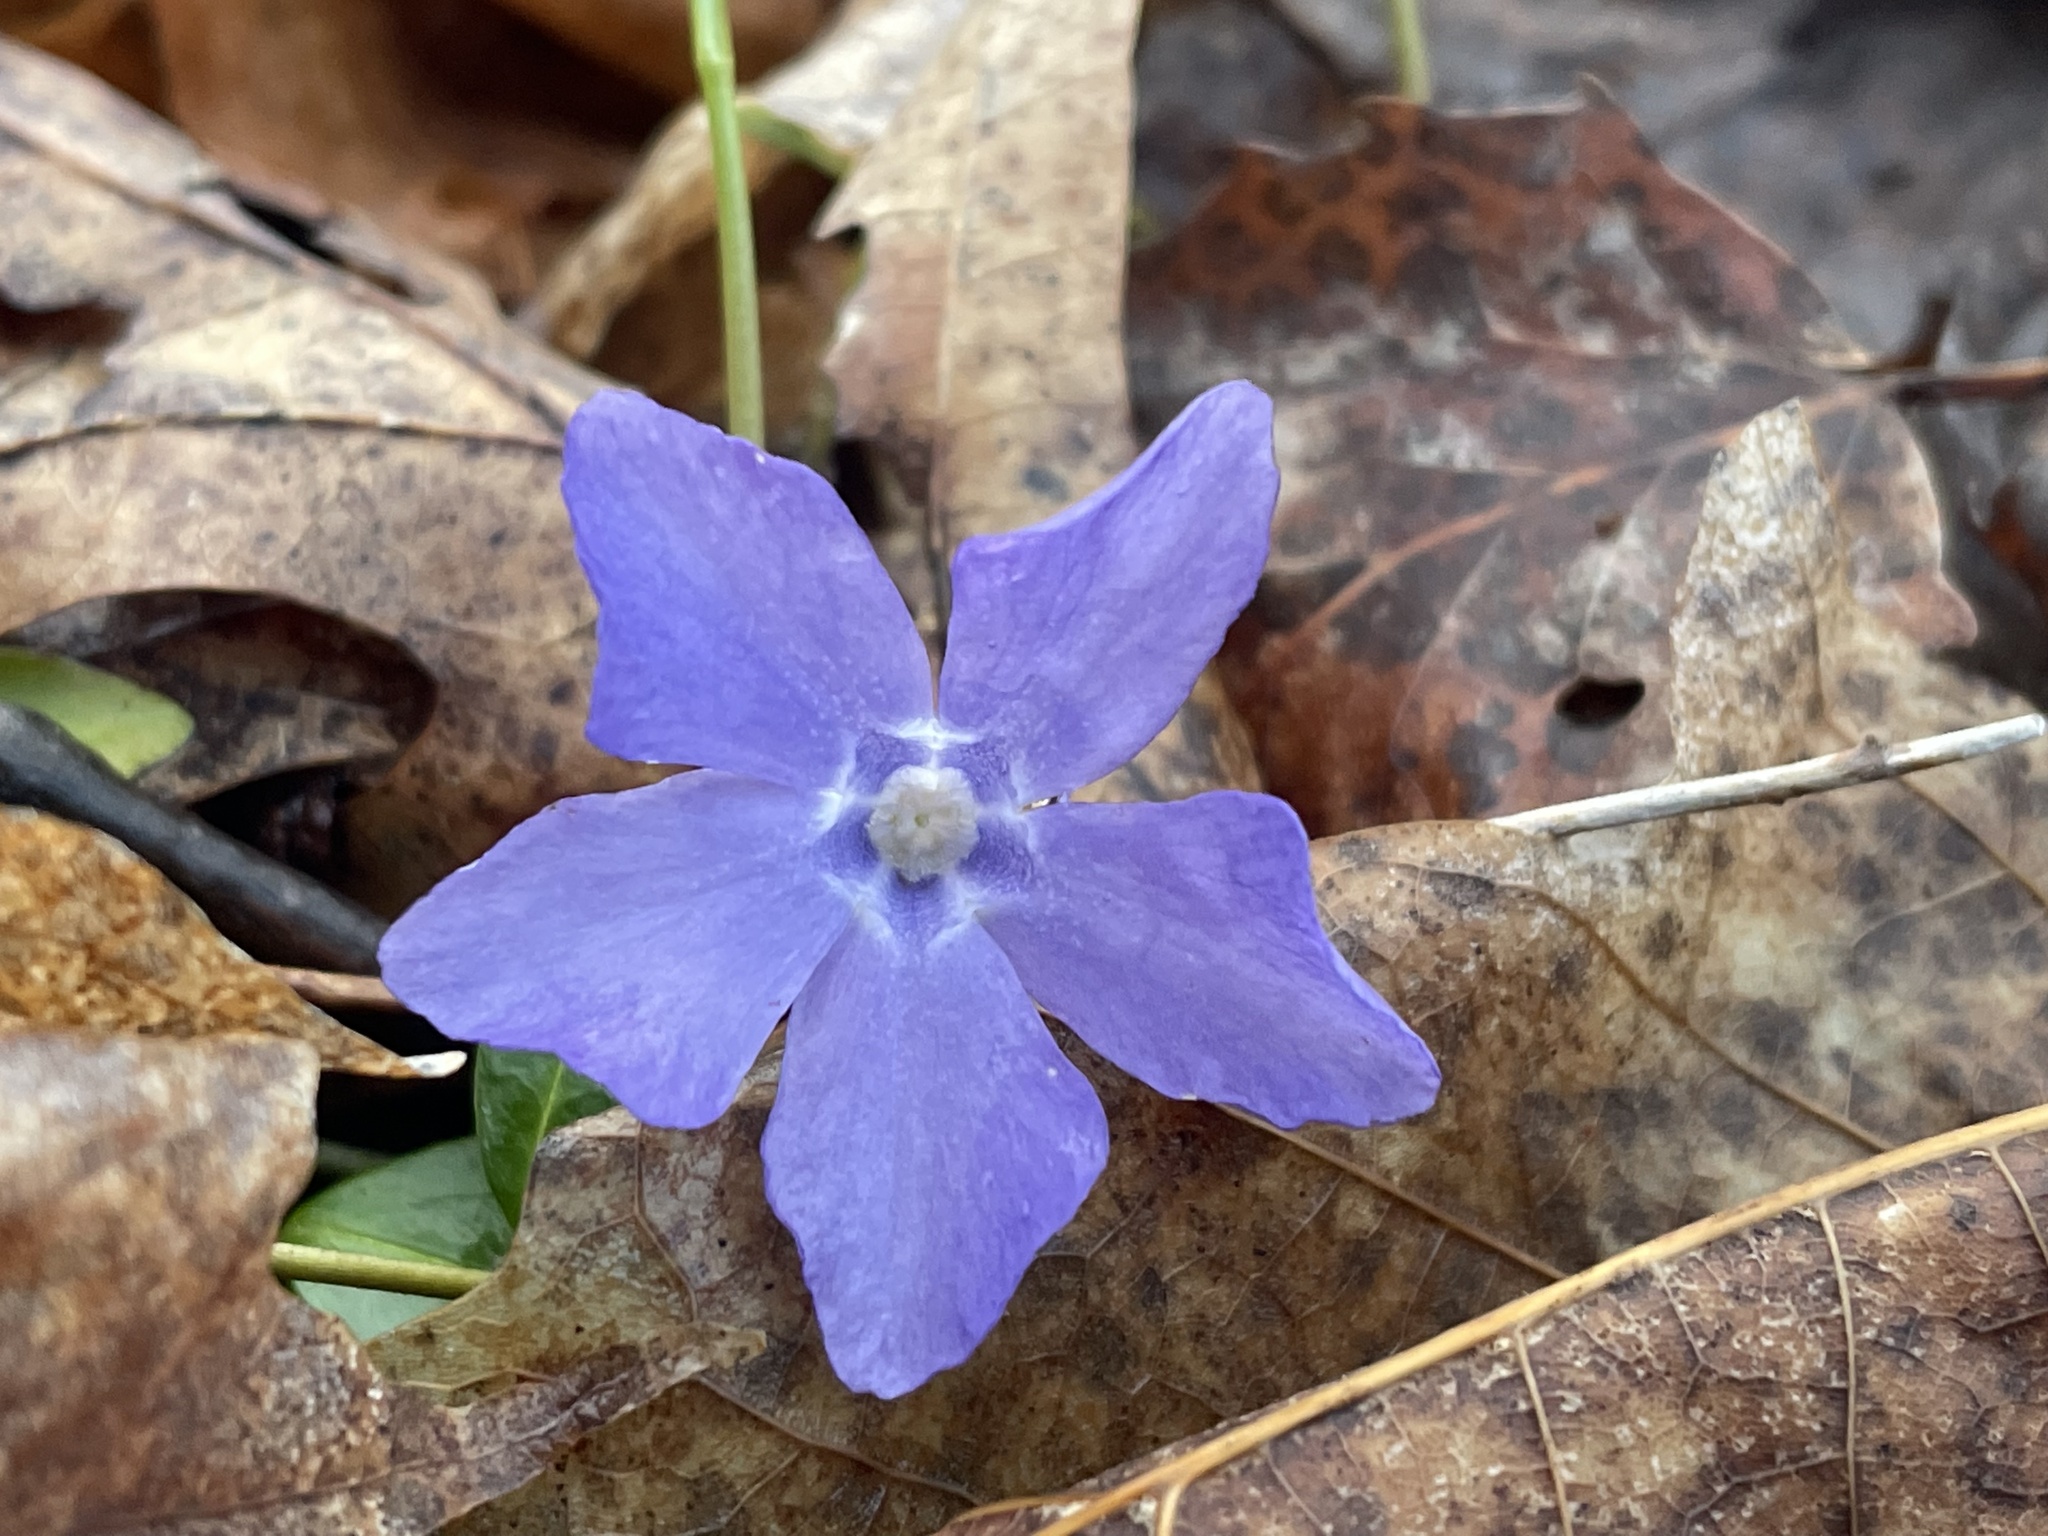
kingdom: Plantae
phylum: Tracheophyta
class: Magnoliopsida
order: Gentianales
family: Apocynaceae
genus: Vinca
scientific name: Vinca minor
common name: Lesser periwinkle
